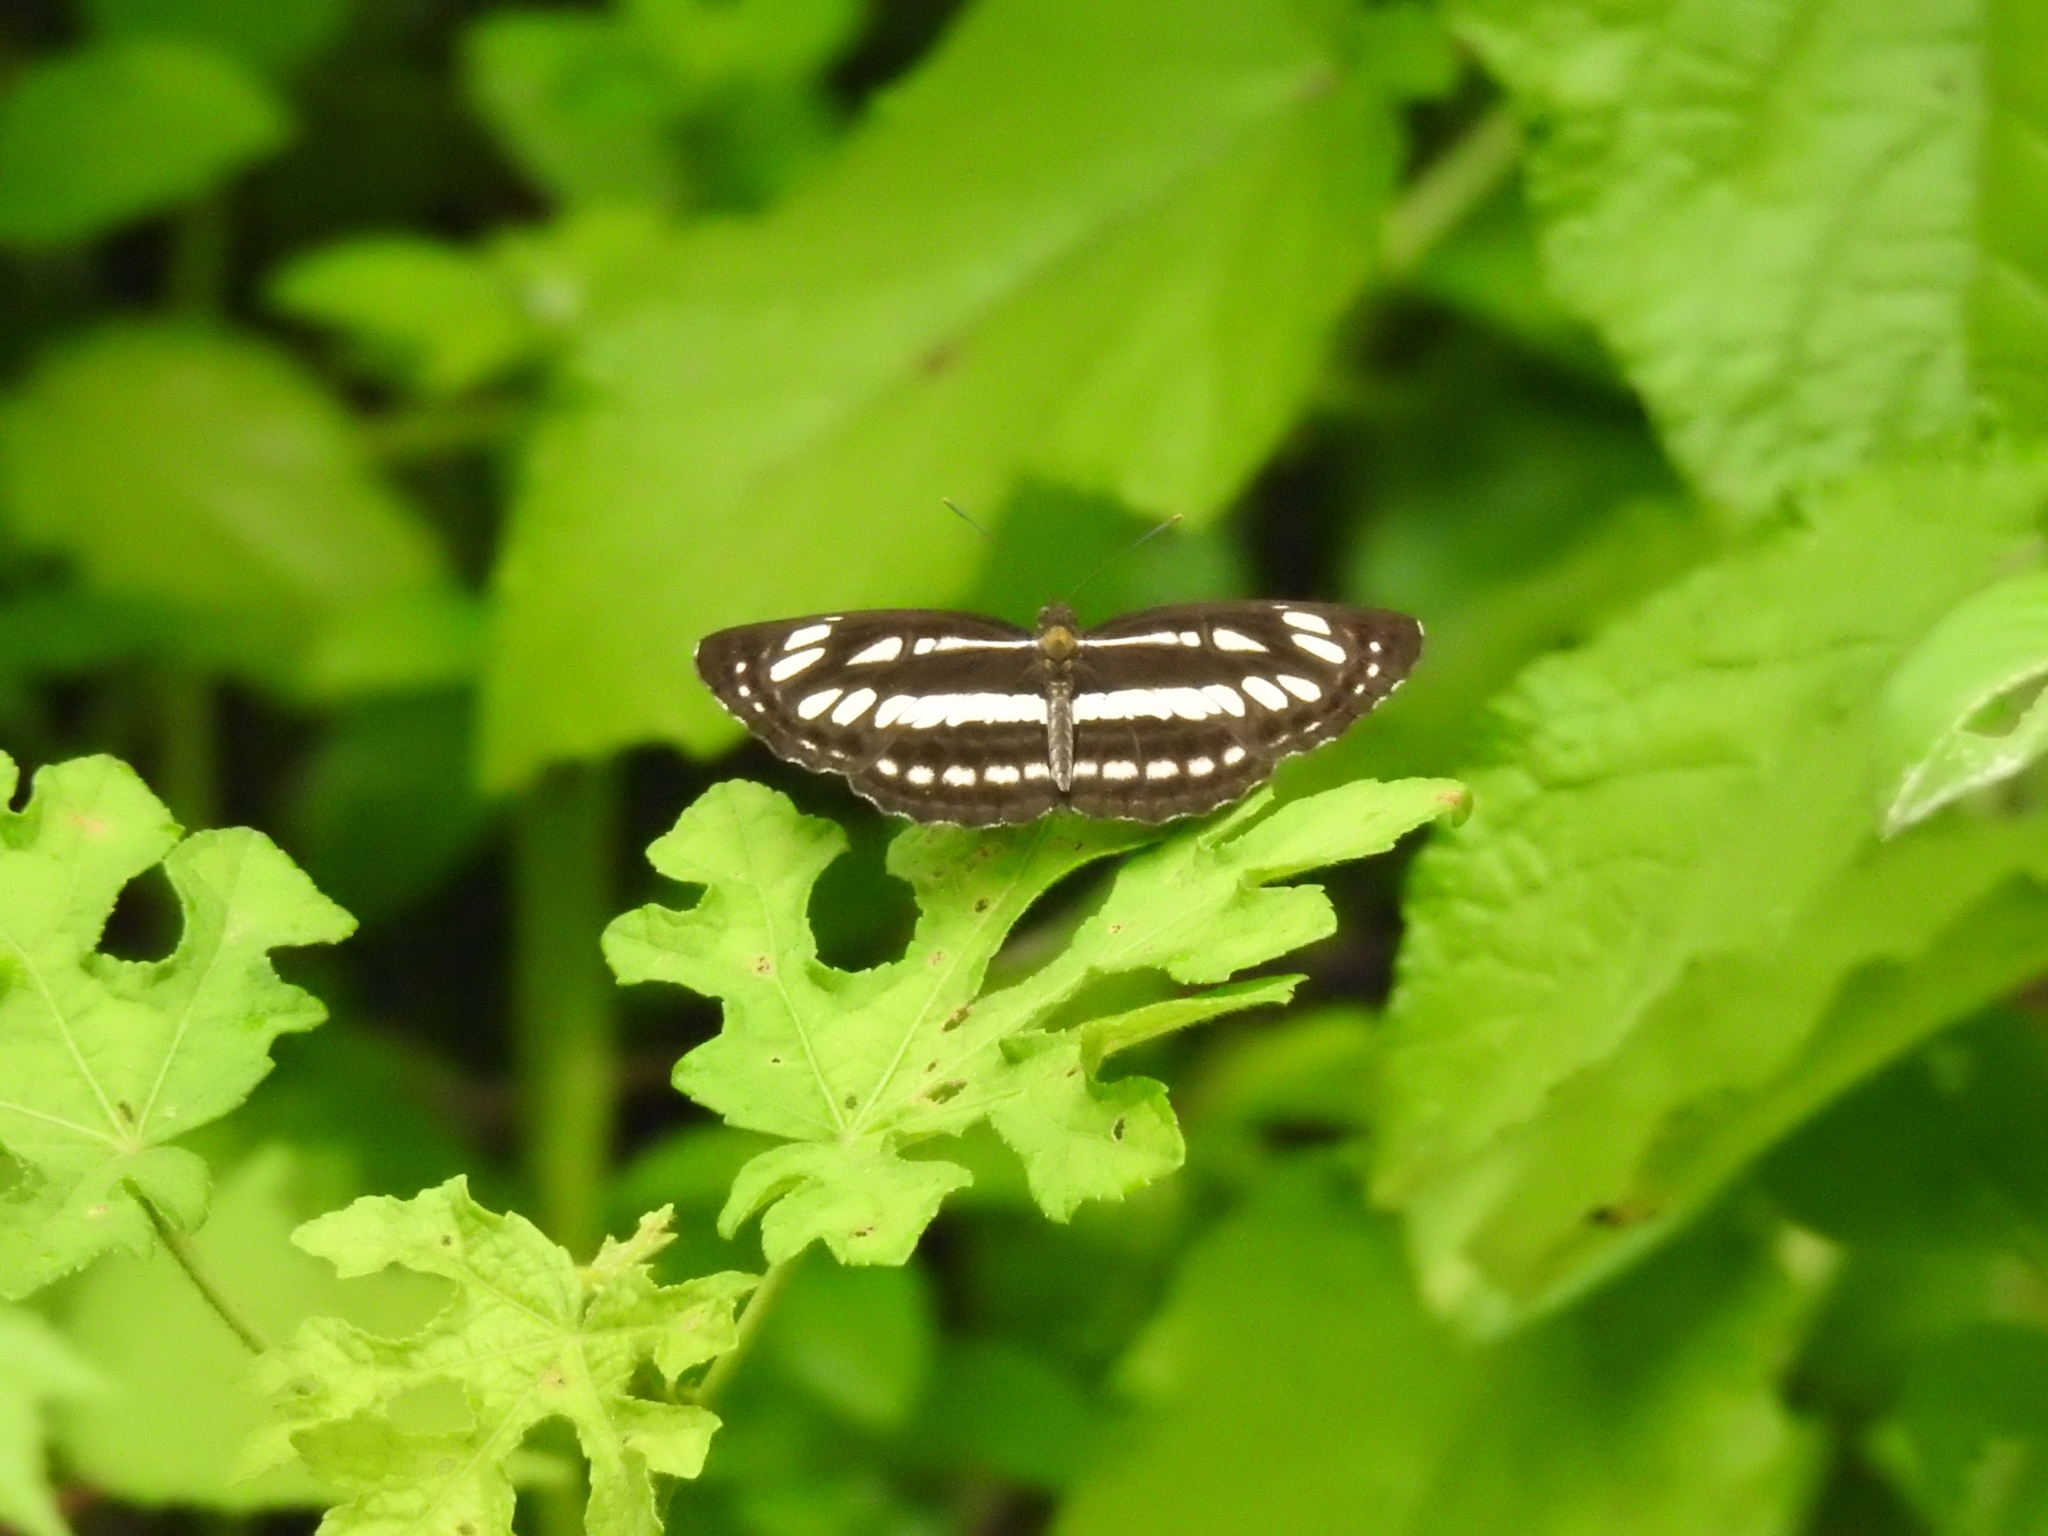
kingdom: Animalia
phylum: Arthropoda
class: Insecta
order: Lepidoptera
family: Nymphalidae
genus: Neptis
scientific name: Neptis hylas
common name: Common sailer
